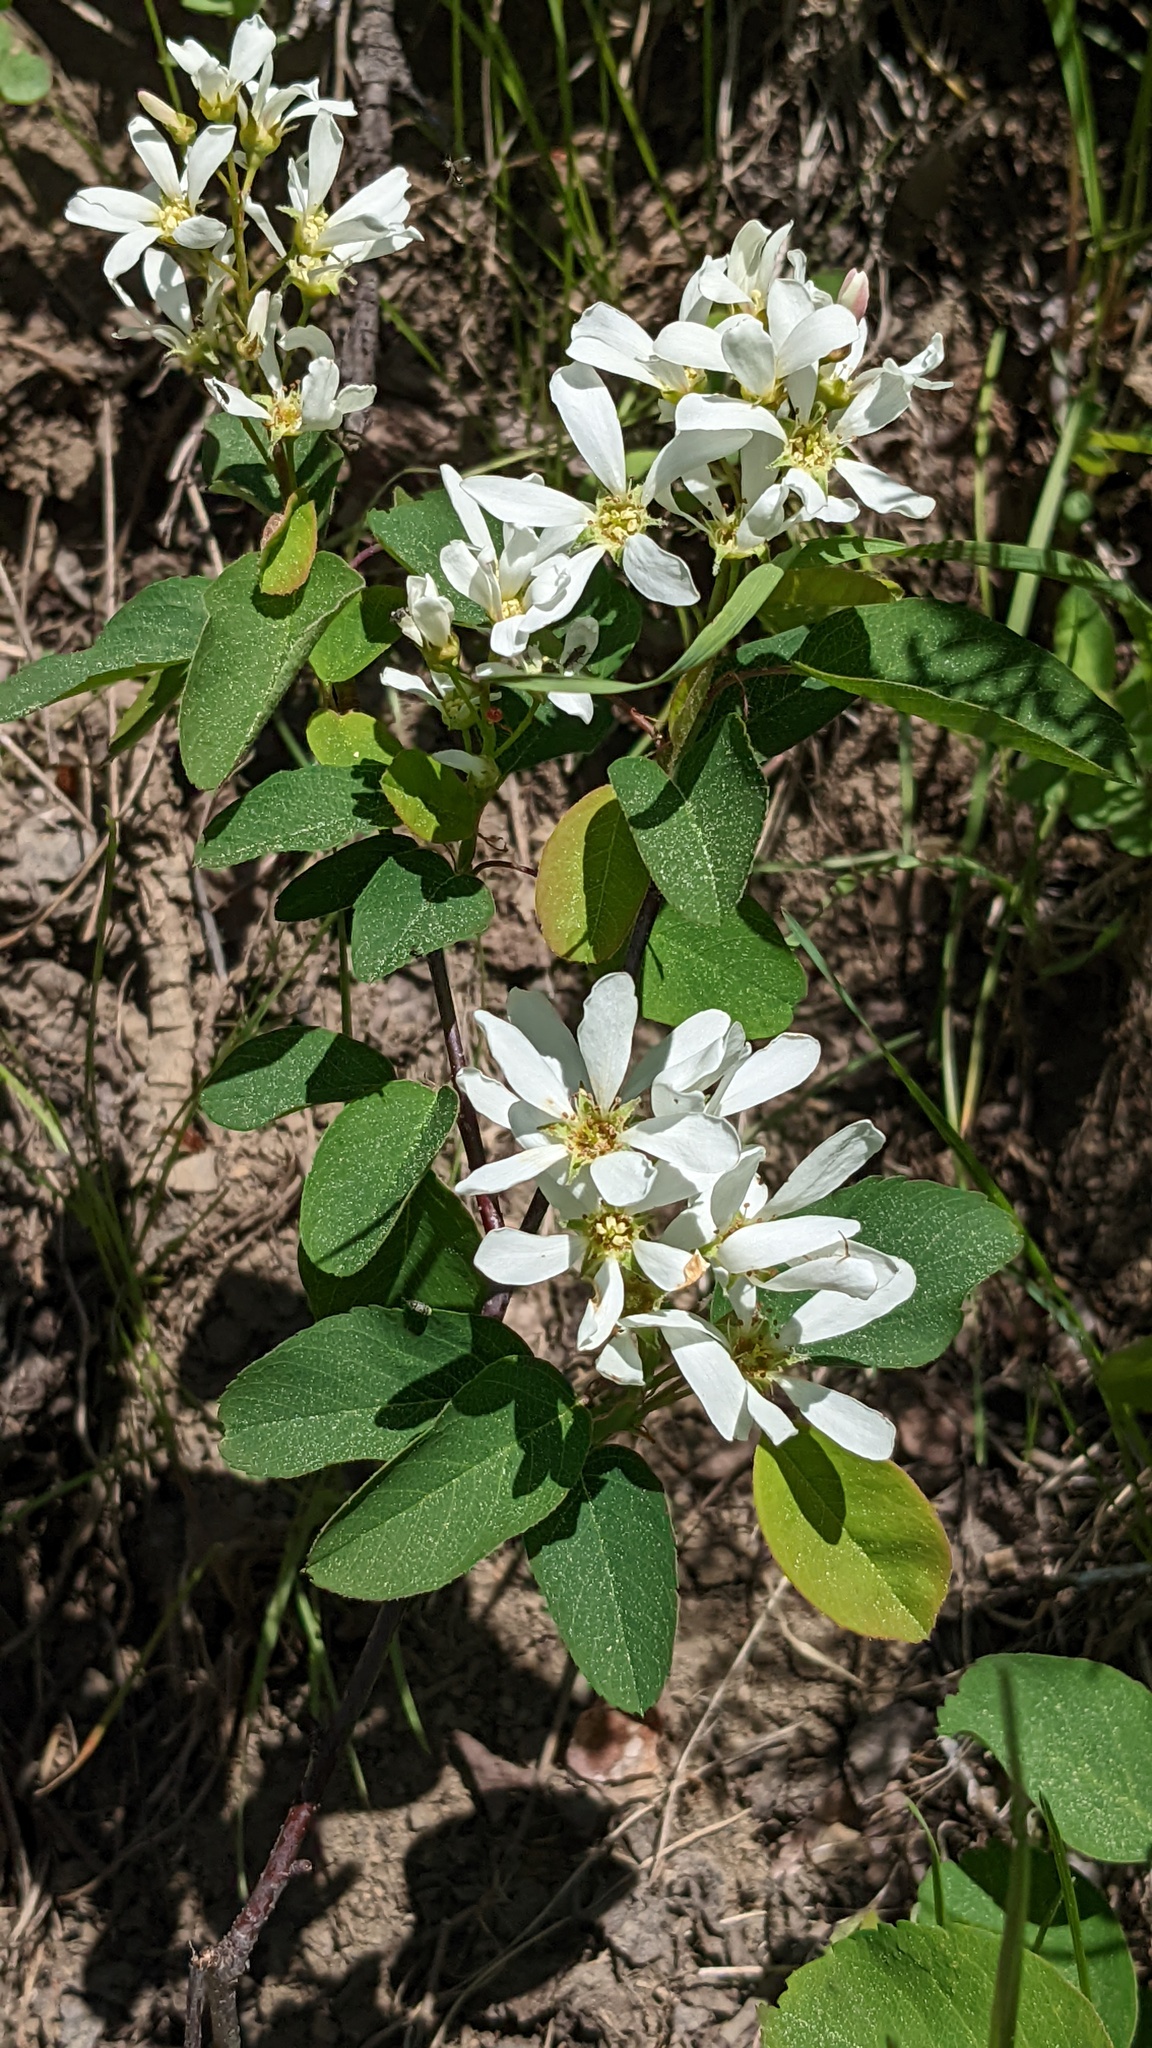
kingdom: Plantae
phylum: Tracheophyta
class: Magnoliopsida
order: Rosales
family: Rosaceae
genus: Amelanchier
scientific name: Amelanchier alnifolia
